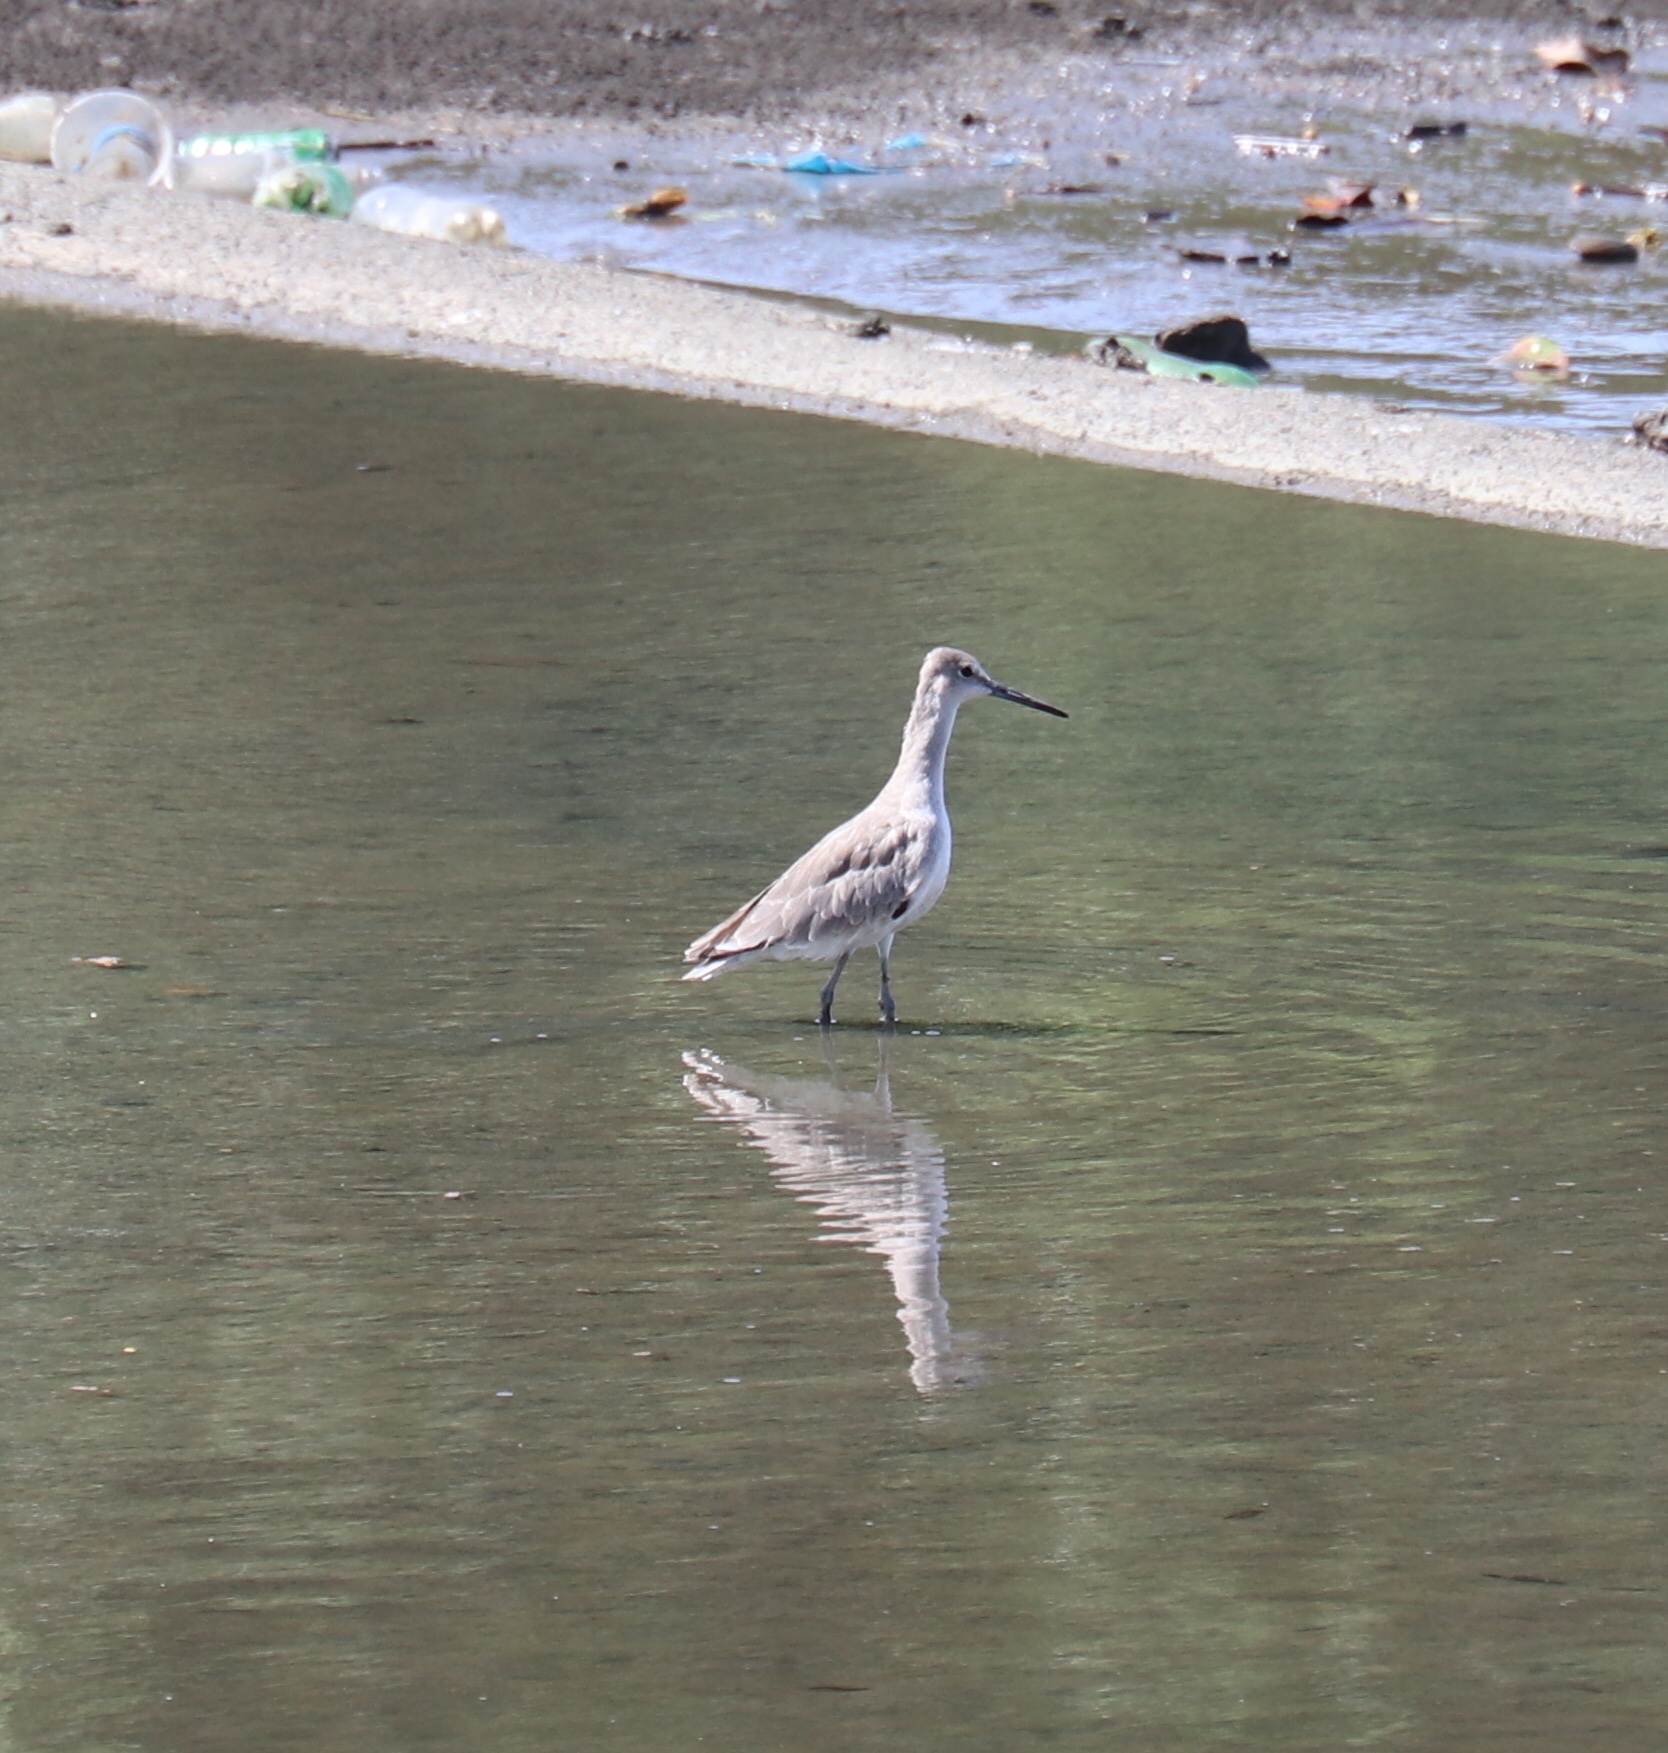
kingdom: Animalia
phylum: Chordata
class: Aves
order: Charadriiformes
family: Scolopacidae
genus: Tringa
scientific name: Tringa semipalmata
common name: Willet
